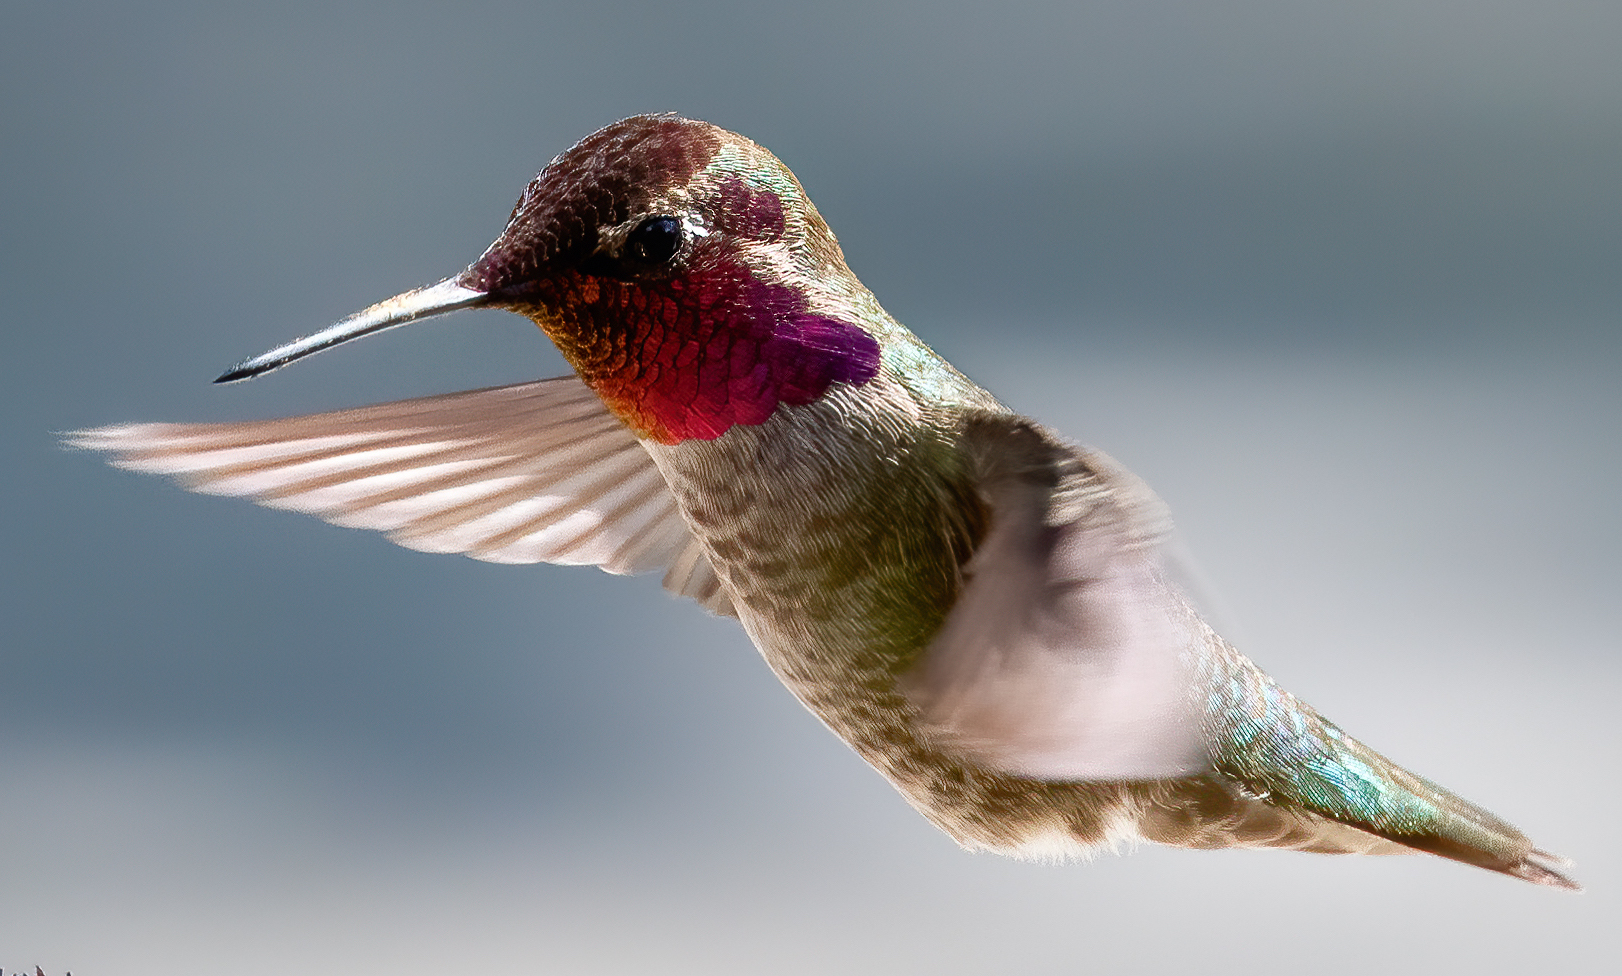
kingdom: Animalia
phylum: Chordata
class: Aves
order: Apodiformes
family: Trochilidae
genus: Calypte
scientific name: Calypte anna
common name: Anna's hummingbird
